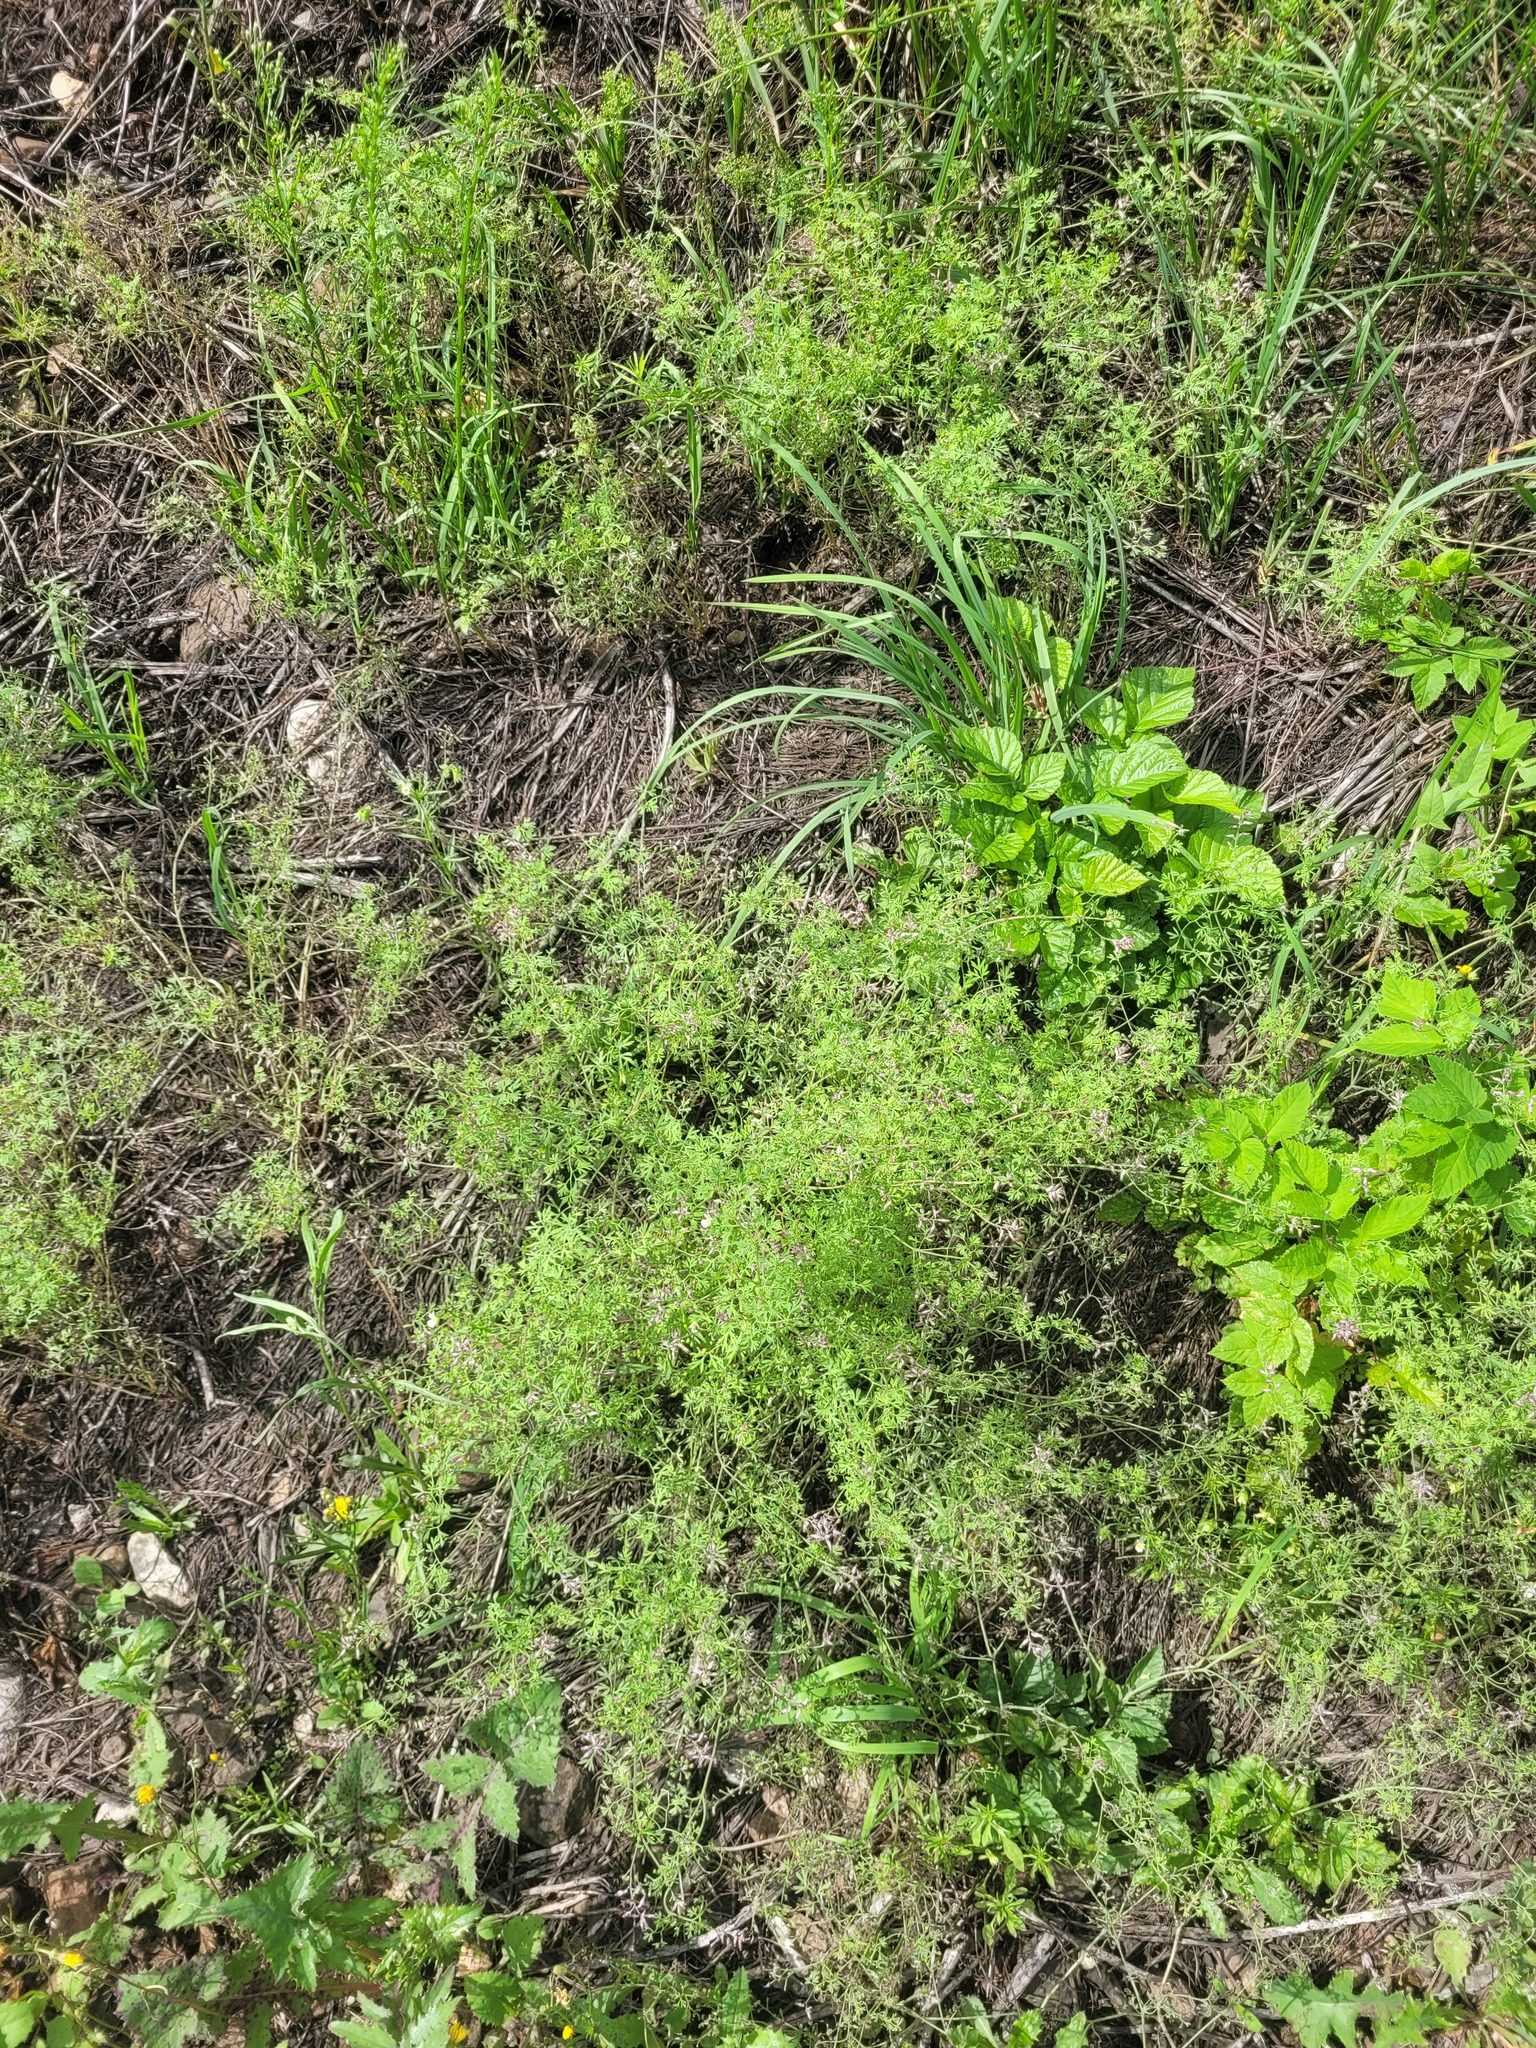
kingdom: Plantae
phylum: Tracheophyta
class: Magnoliopsida
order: Ranunculales
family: Papaveraceae
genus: Fumaria
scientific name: Fumaria schleicheri
